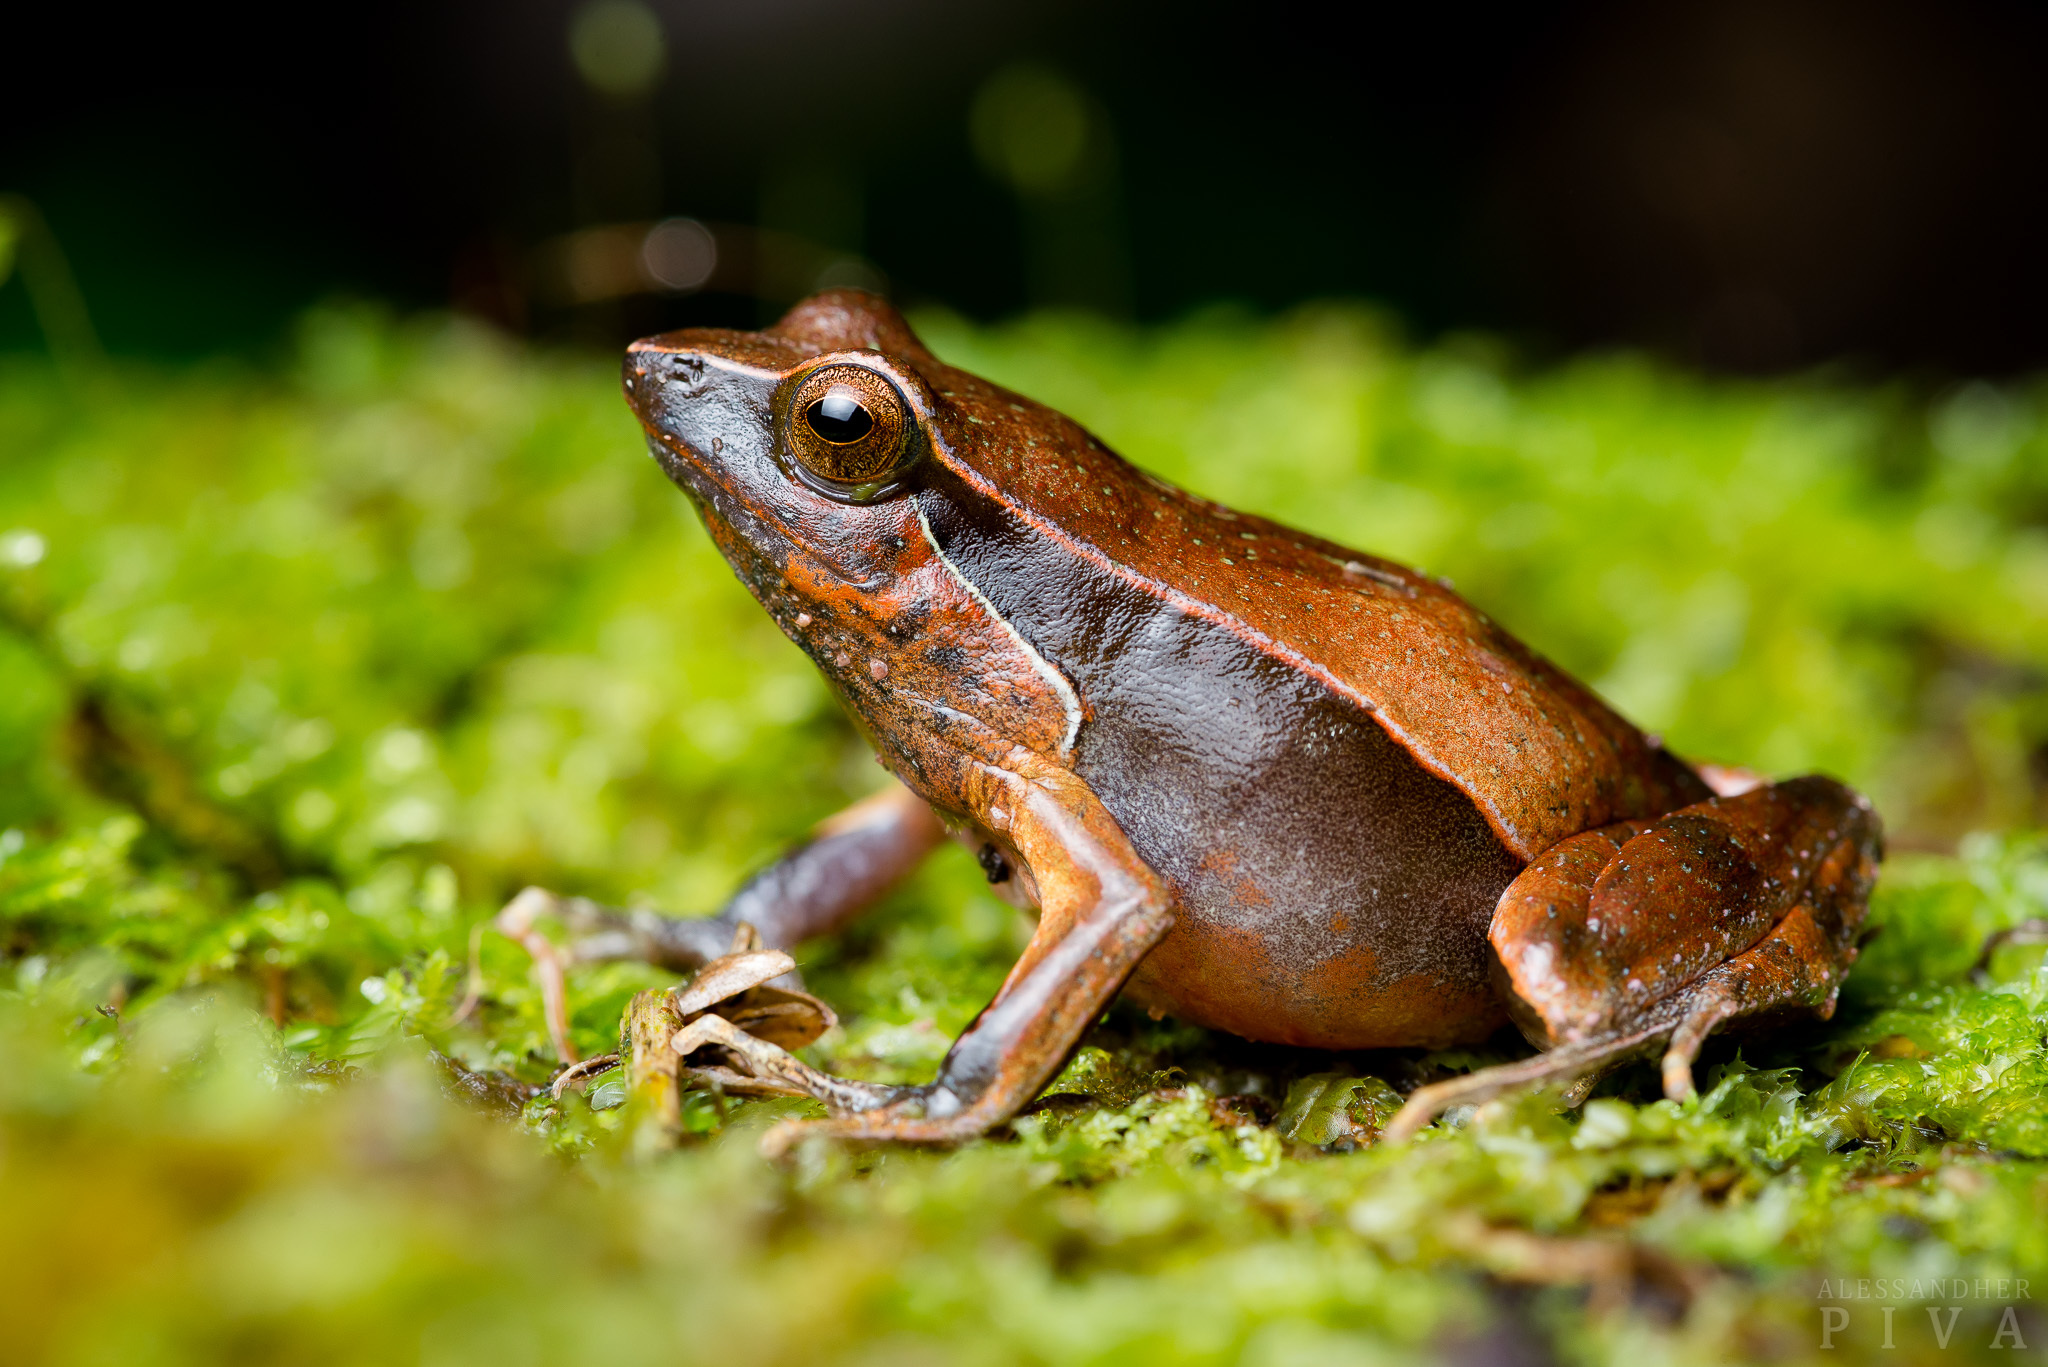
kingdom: Animalia
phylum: Chordata
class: Amphibia
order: Anura
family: Leptodactylidae
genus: Physalaemus
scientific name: Physalaemus lateristriga
